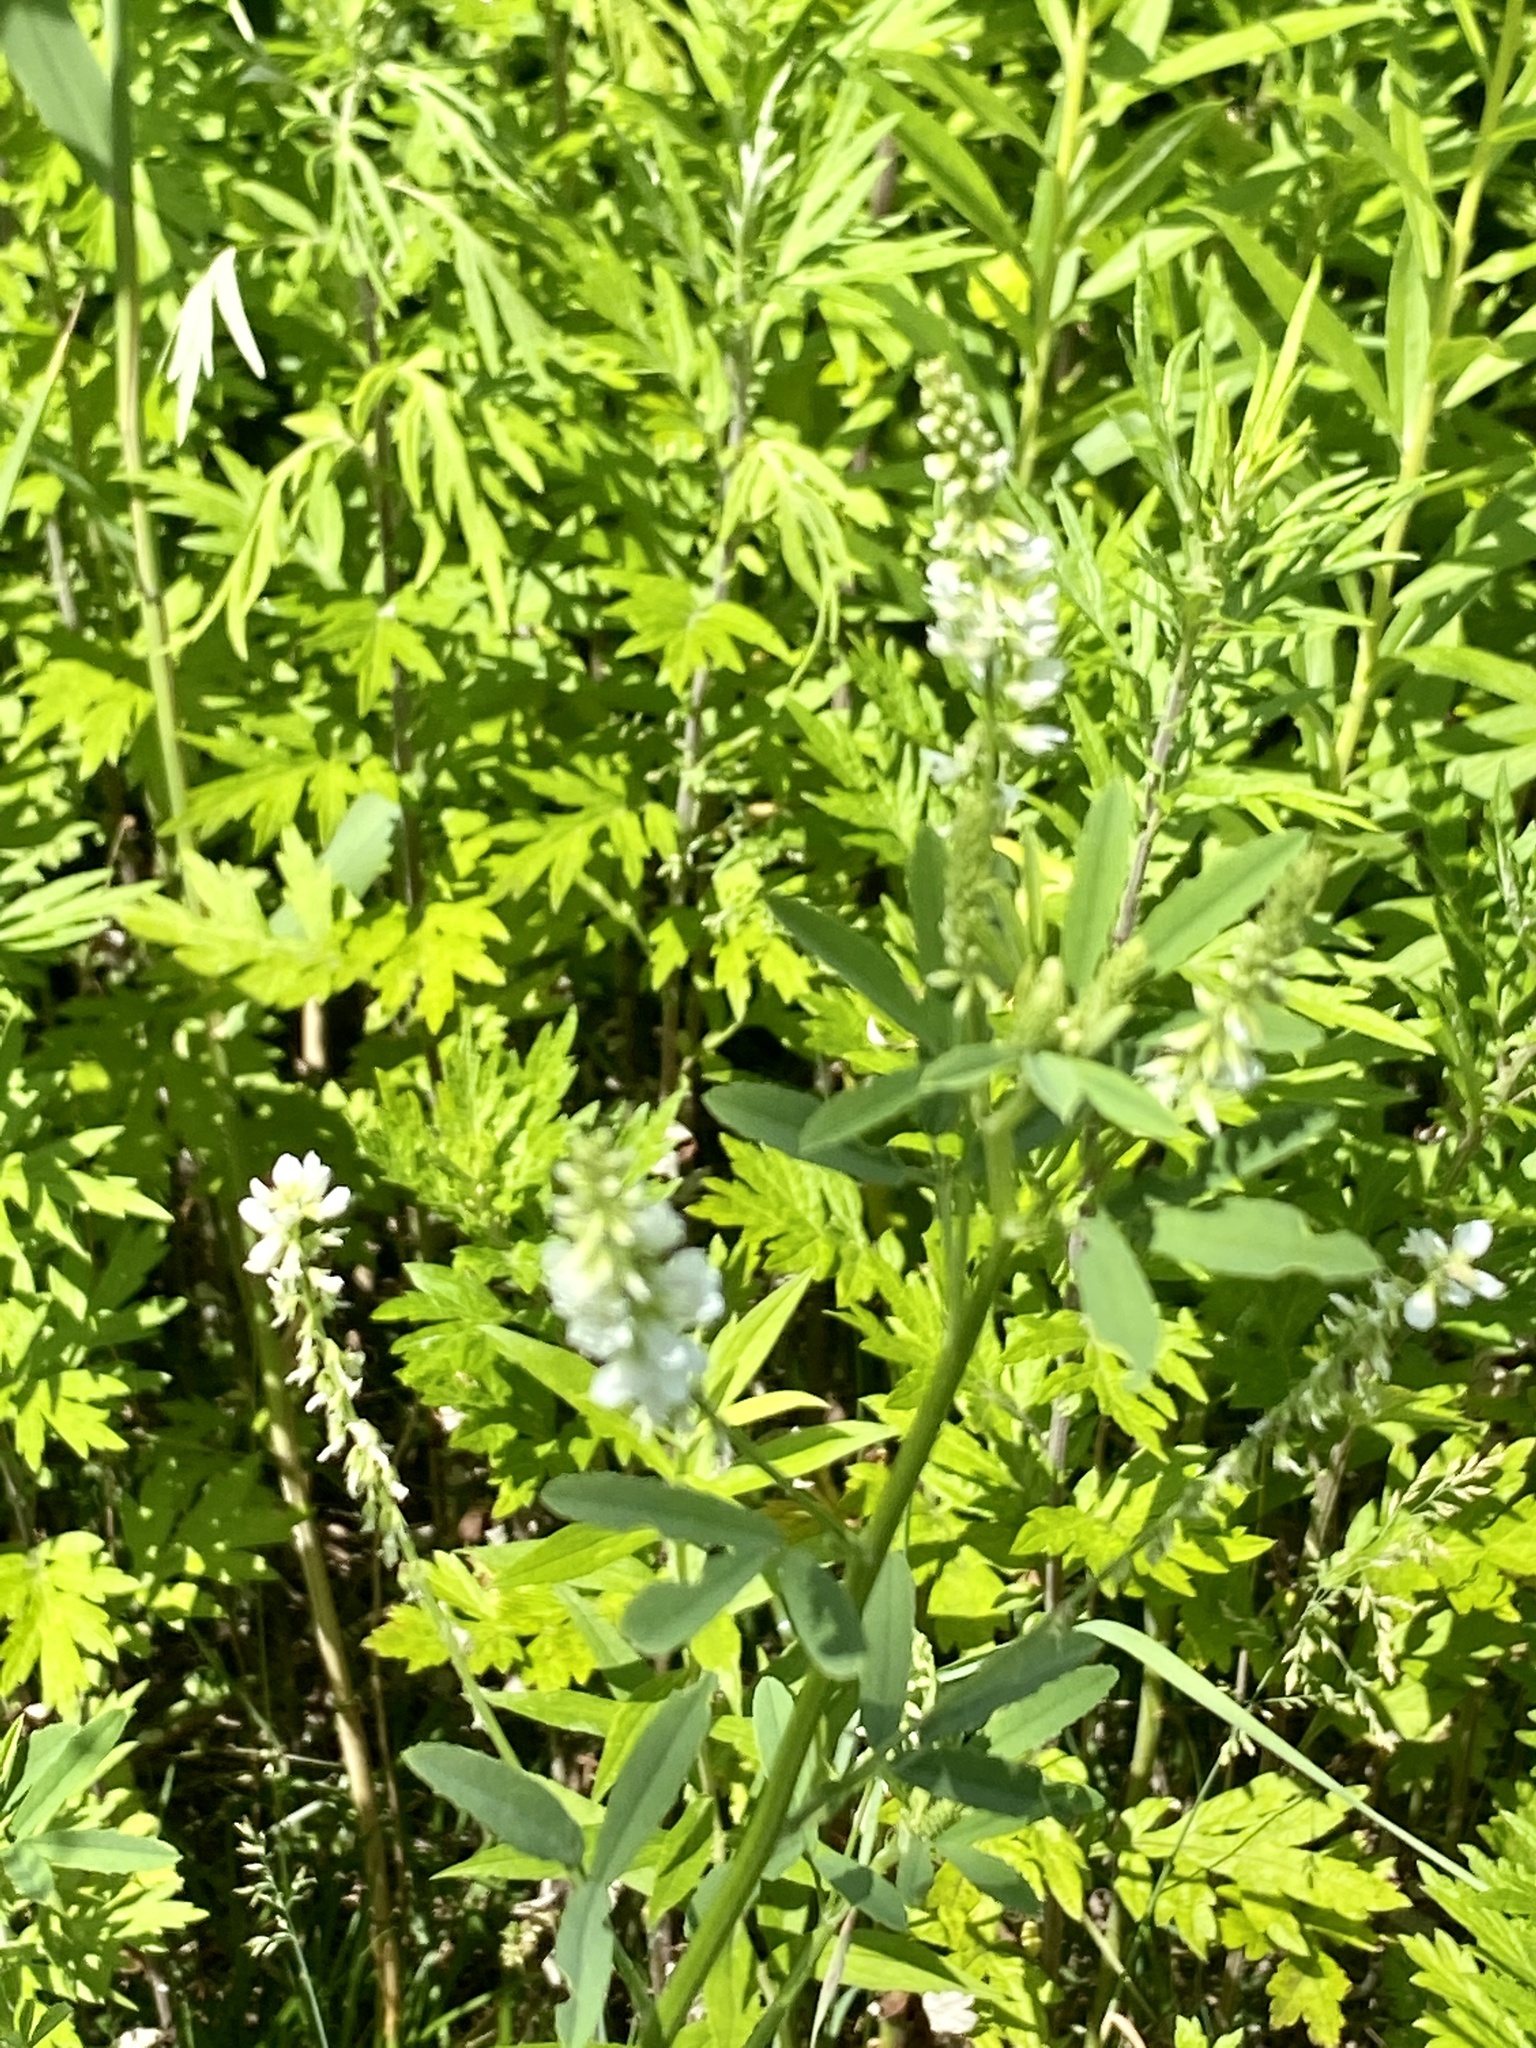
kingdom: Plantae
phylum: Tracheophyta
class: Magnoliopsida
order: Fabales
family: Fabaceae
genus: Melilotus
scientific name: Melilotus albus
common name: White melilot
